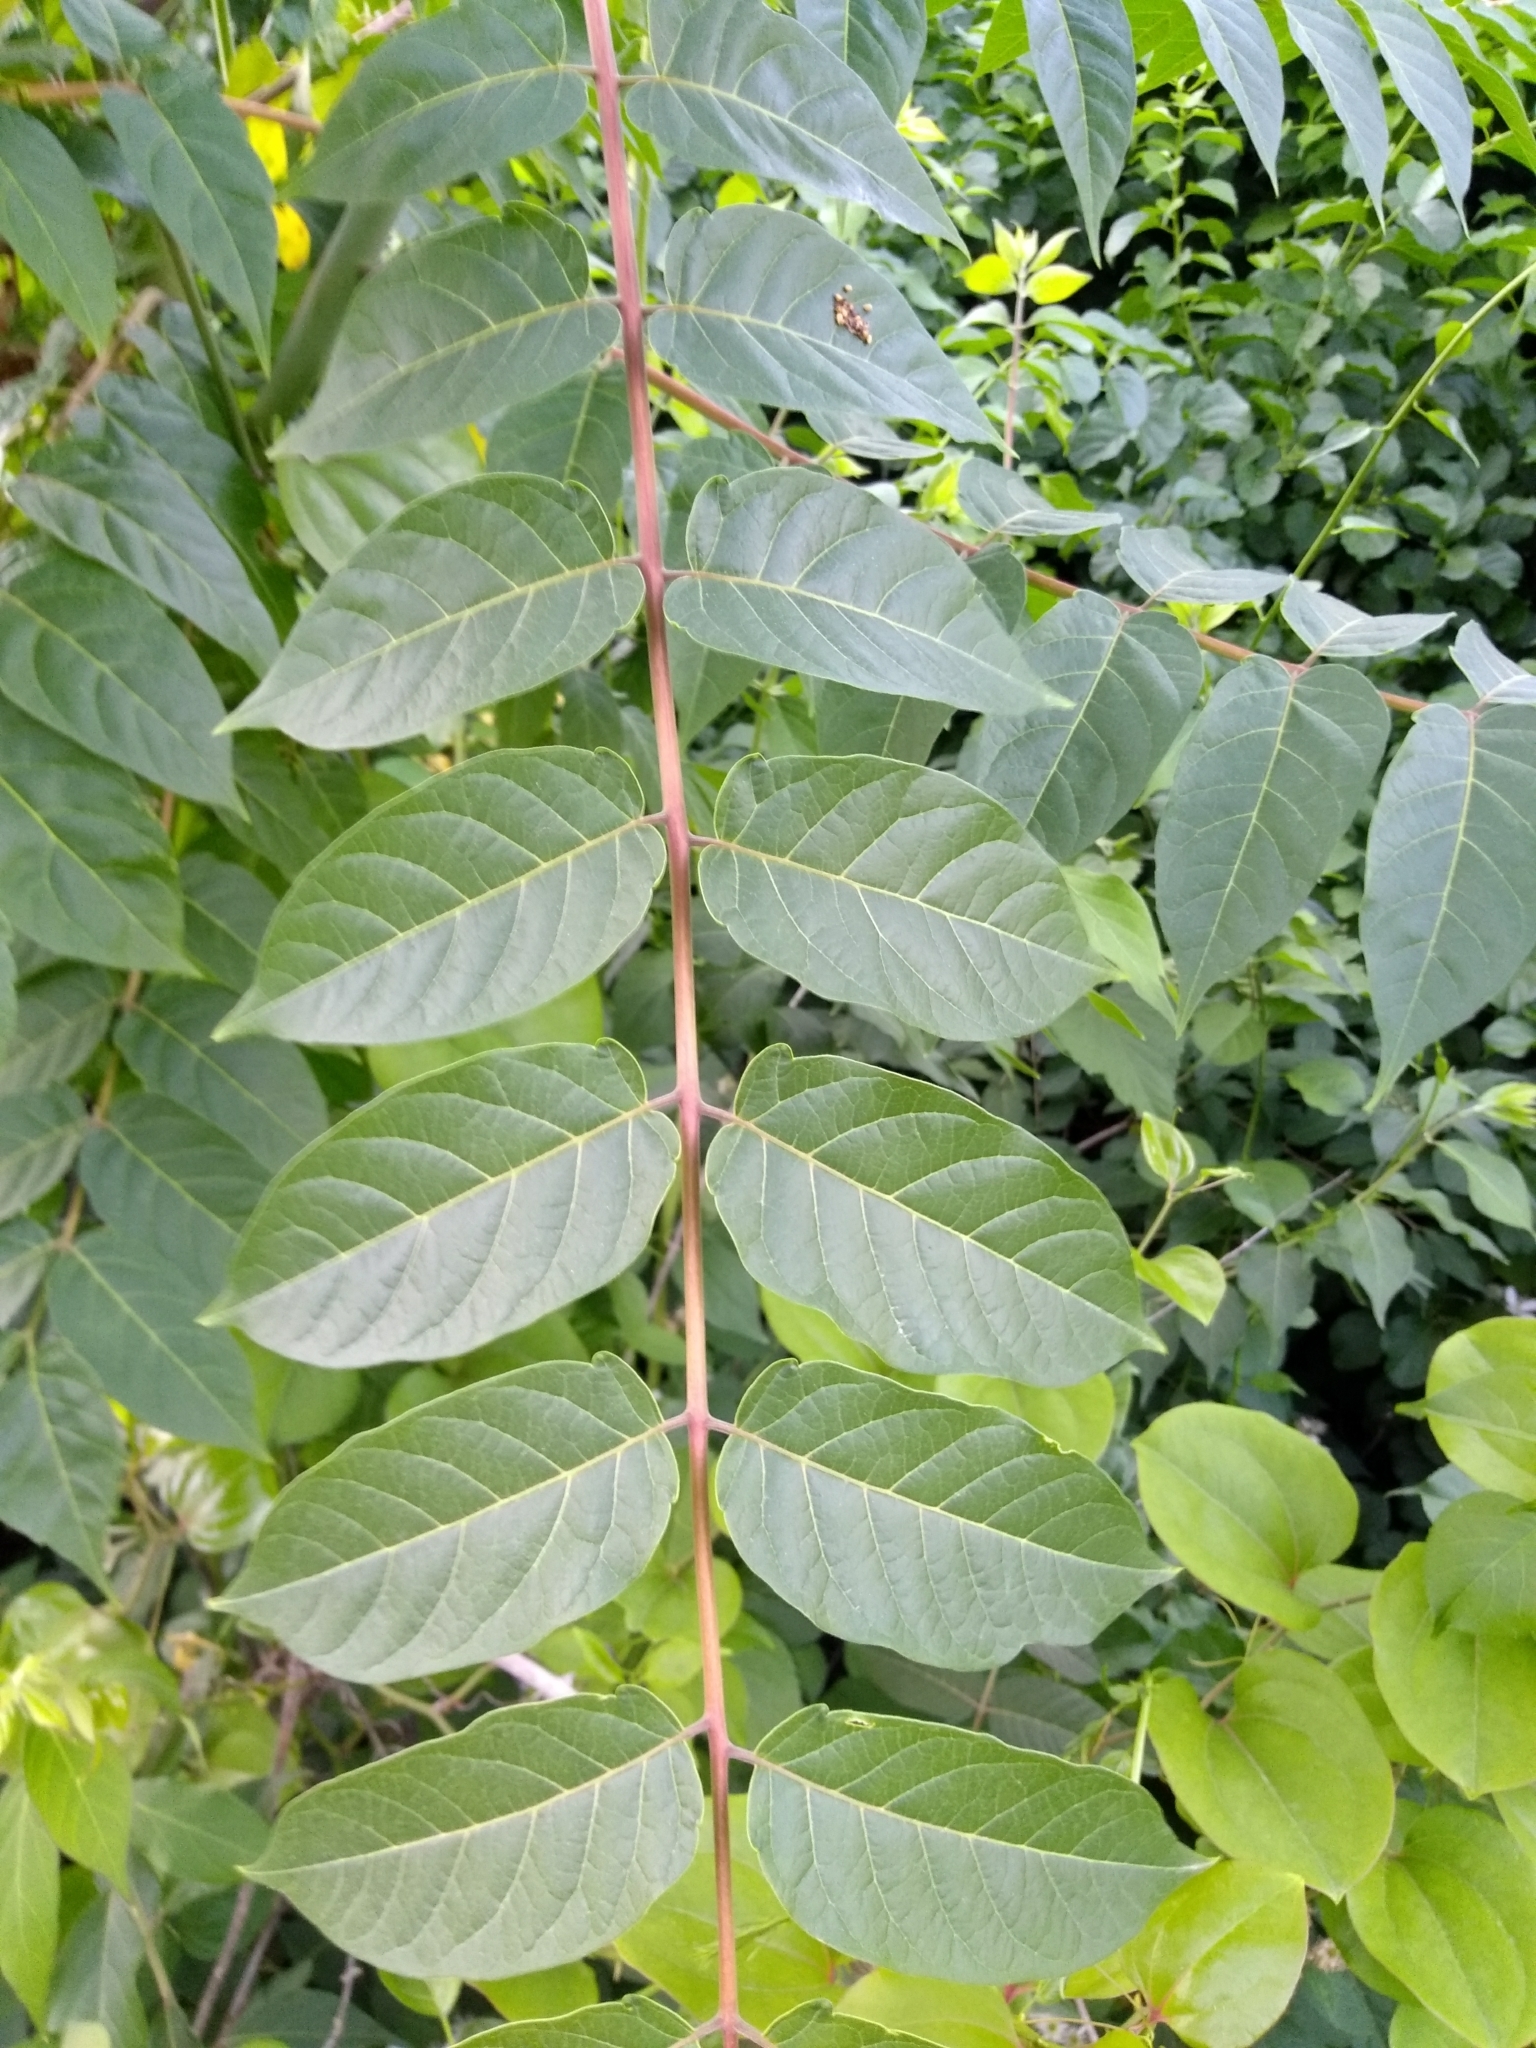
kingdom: Plantae
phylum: Tracheophyta
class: Magnoliopsida
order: Sapindales
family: Simaroubaceae
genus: Ailanthus
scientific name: Ailanthus altissima
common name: Tree-of-heaven
